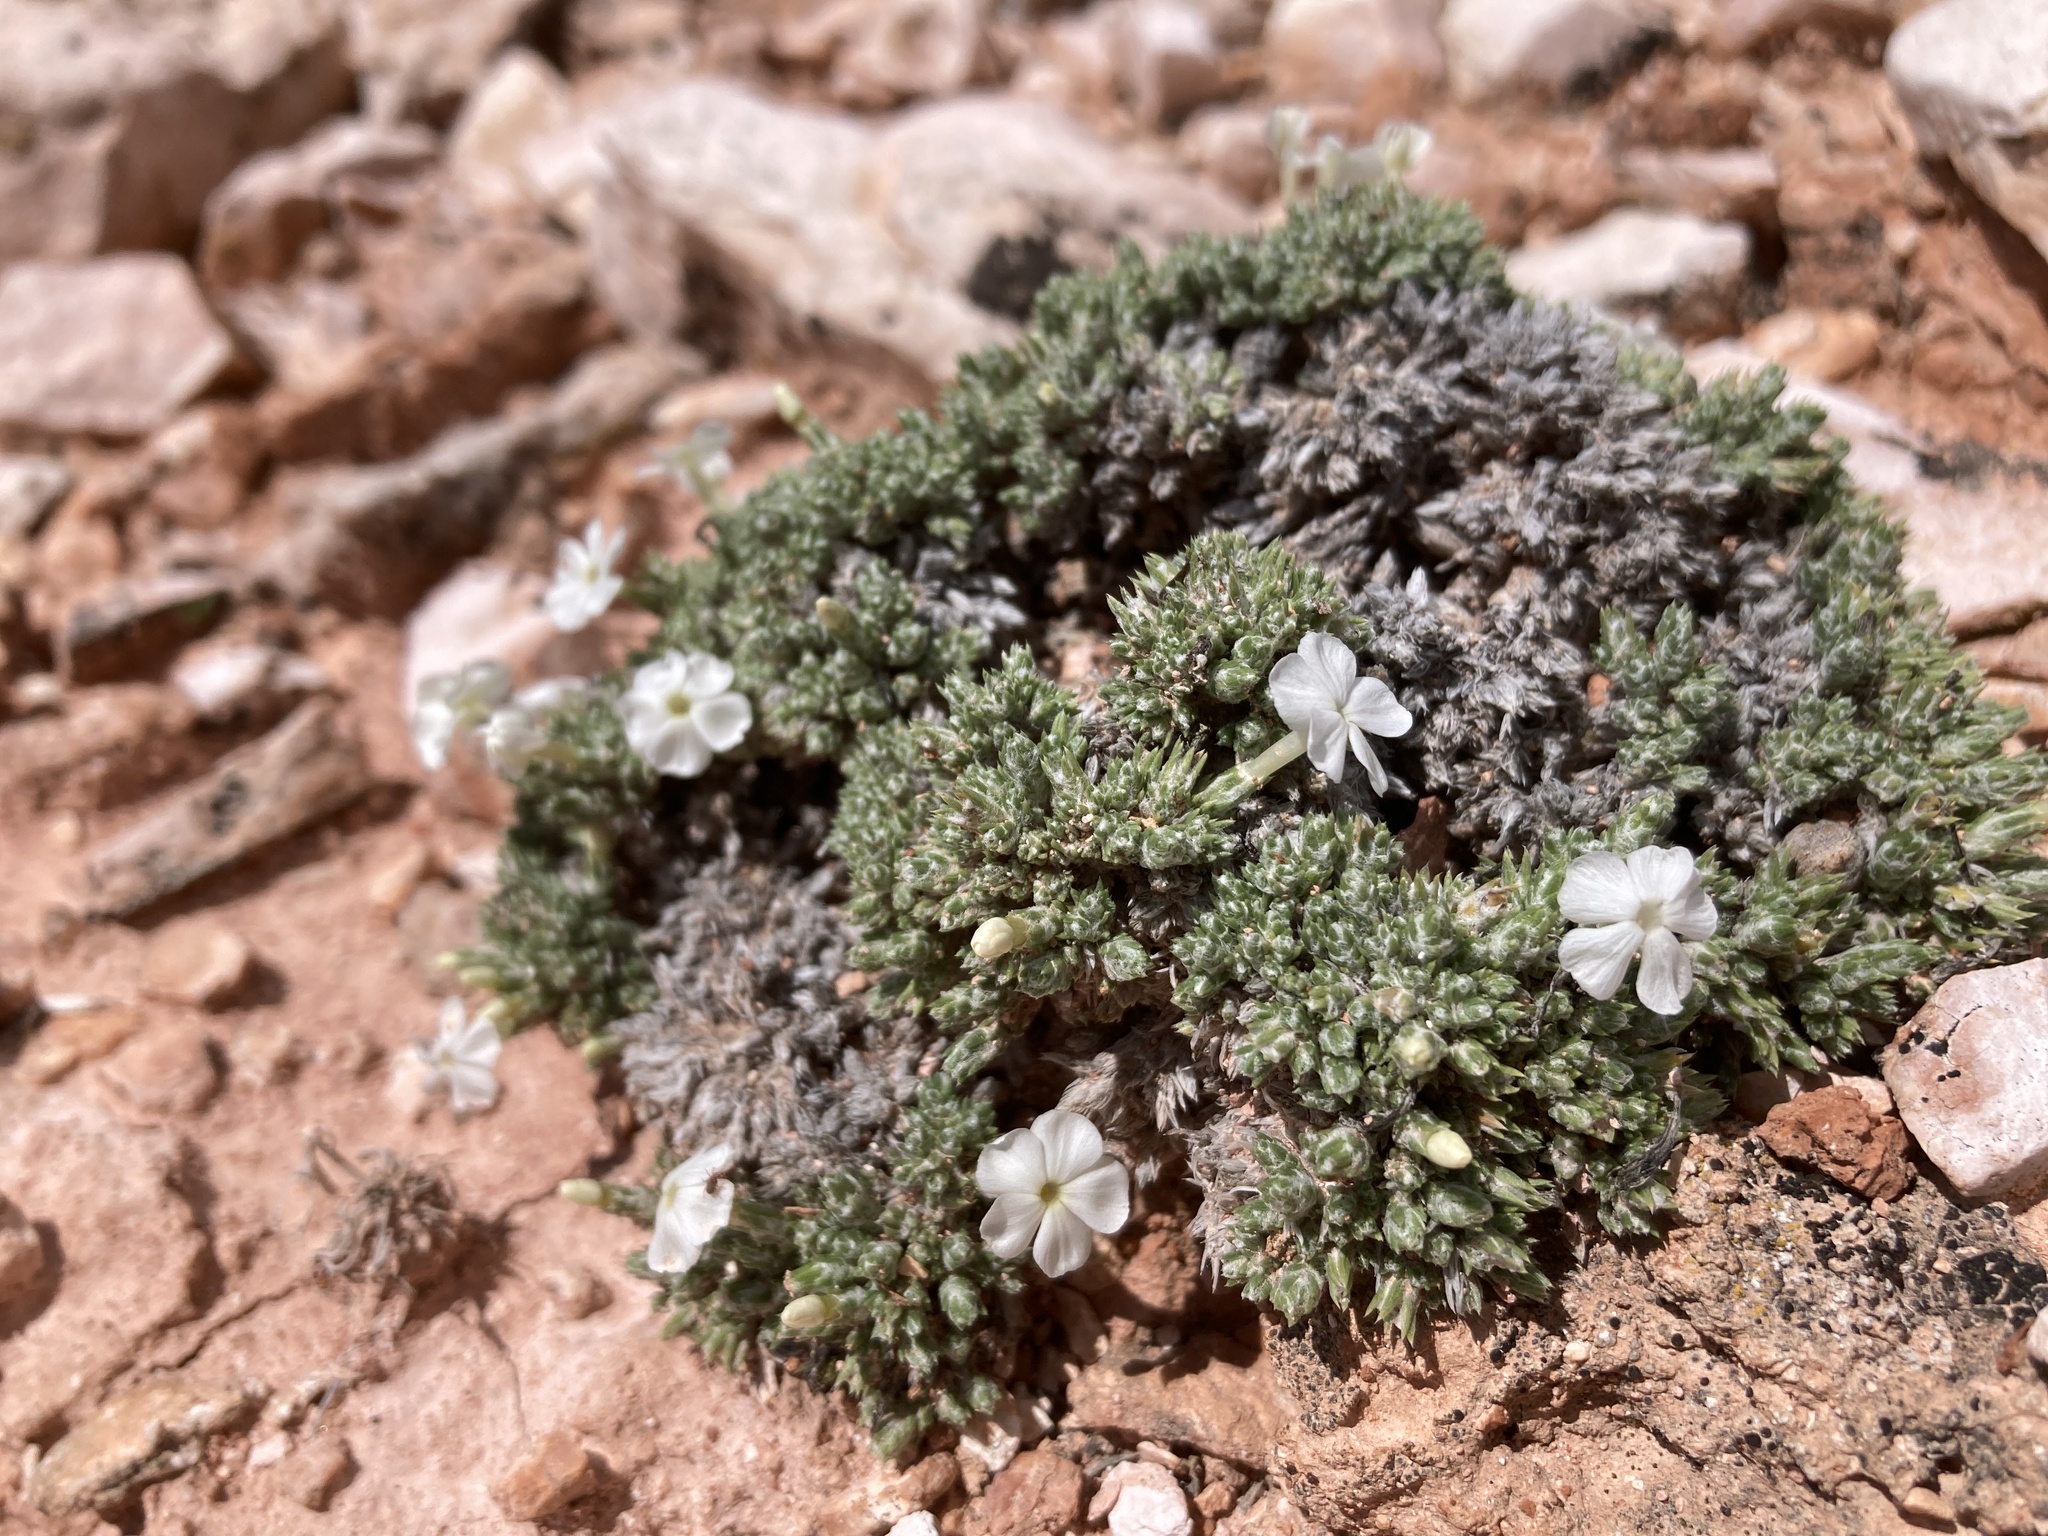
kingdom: Plantae
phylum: Tracheophyta
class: Magnoliopsida
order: Ericales
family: Polemoniaceae
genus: Phlox
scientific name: Phlox hoodii
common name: Moss phlox
